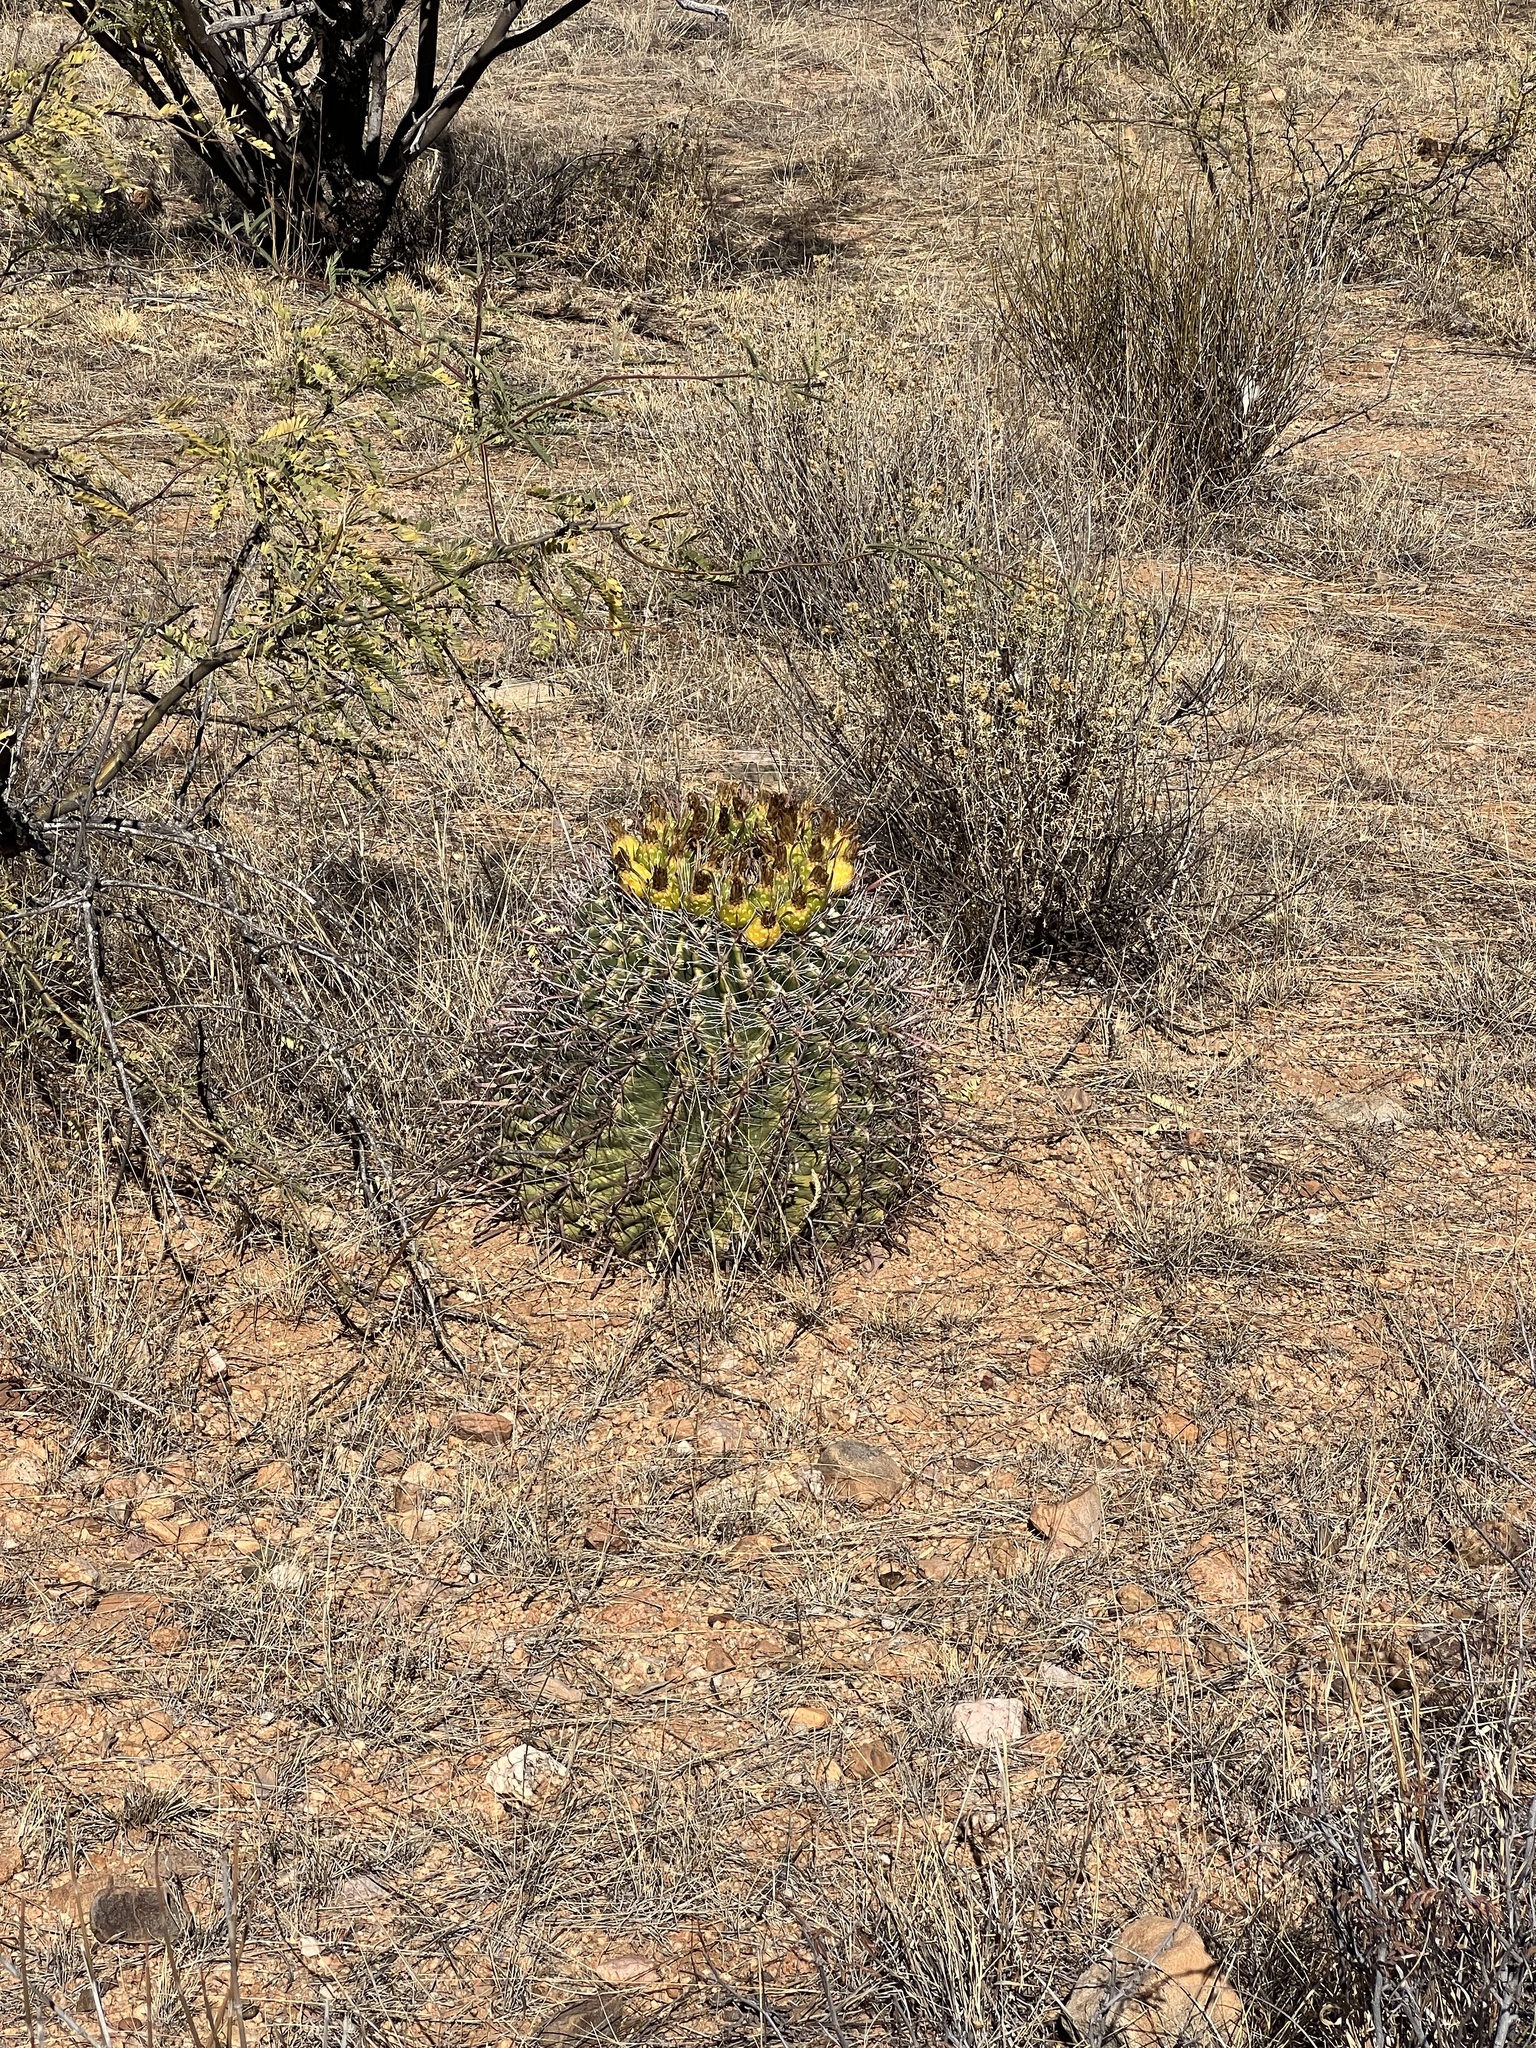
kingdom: Plantae
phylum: Tracheophyta
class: Magnoliopsida
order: Caryophyllales
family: Cactaceae
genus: Ferocactus
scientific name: Ferocactus wislizeni
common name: Candy barrel cactus
